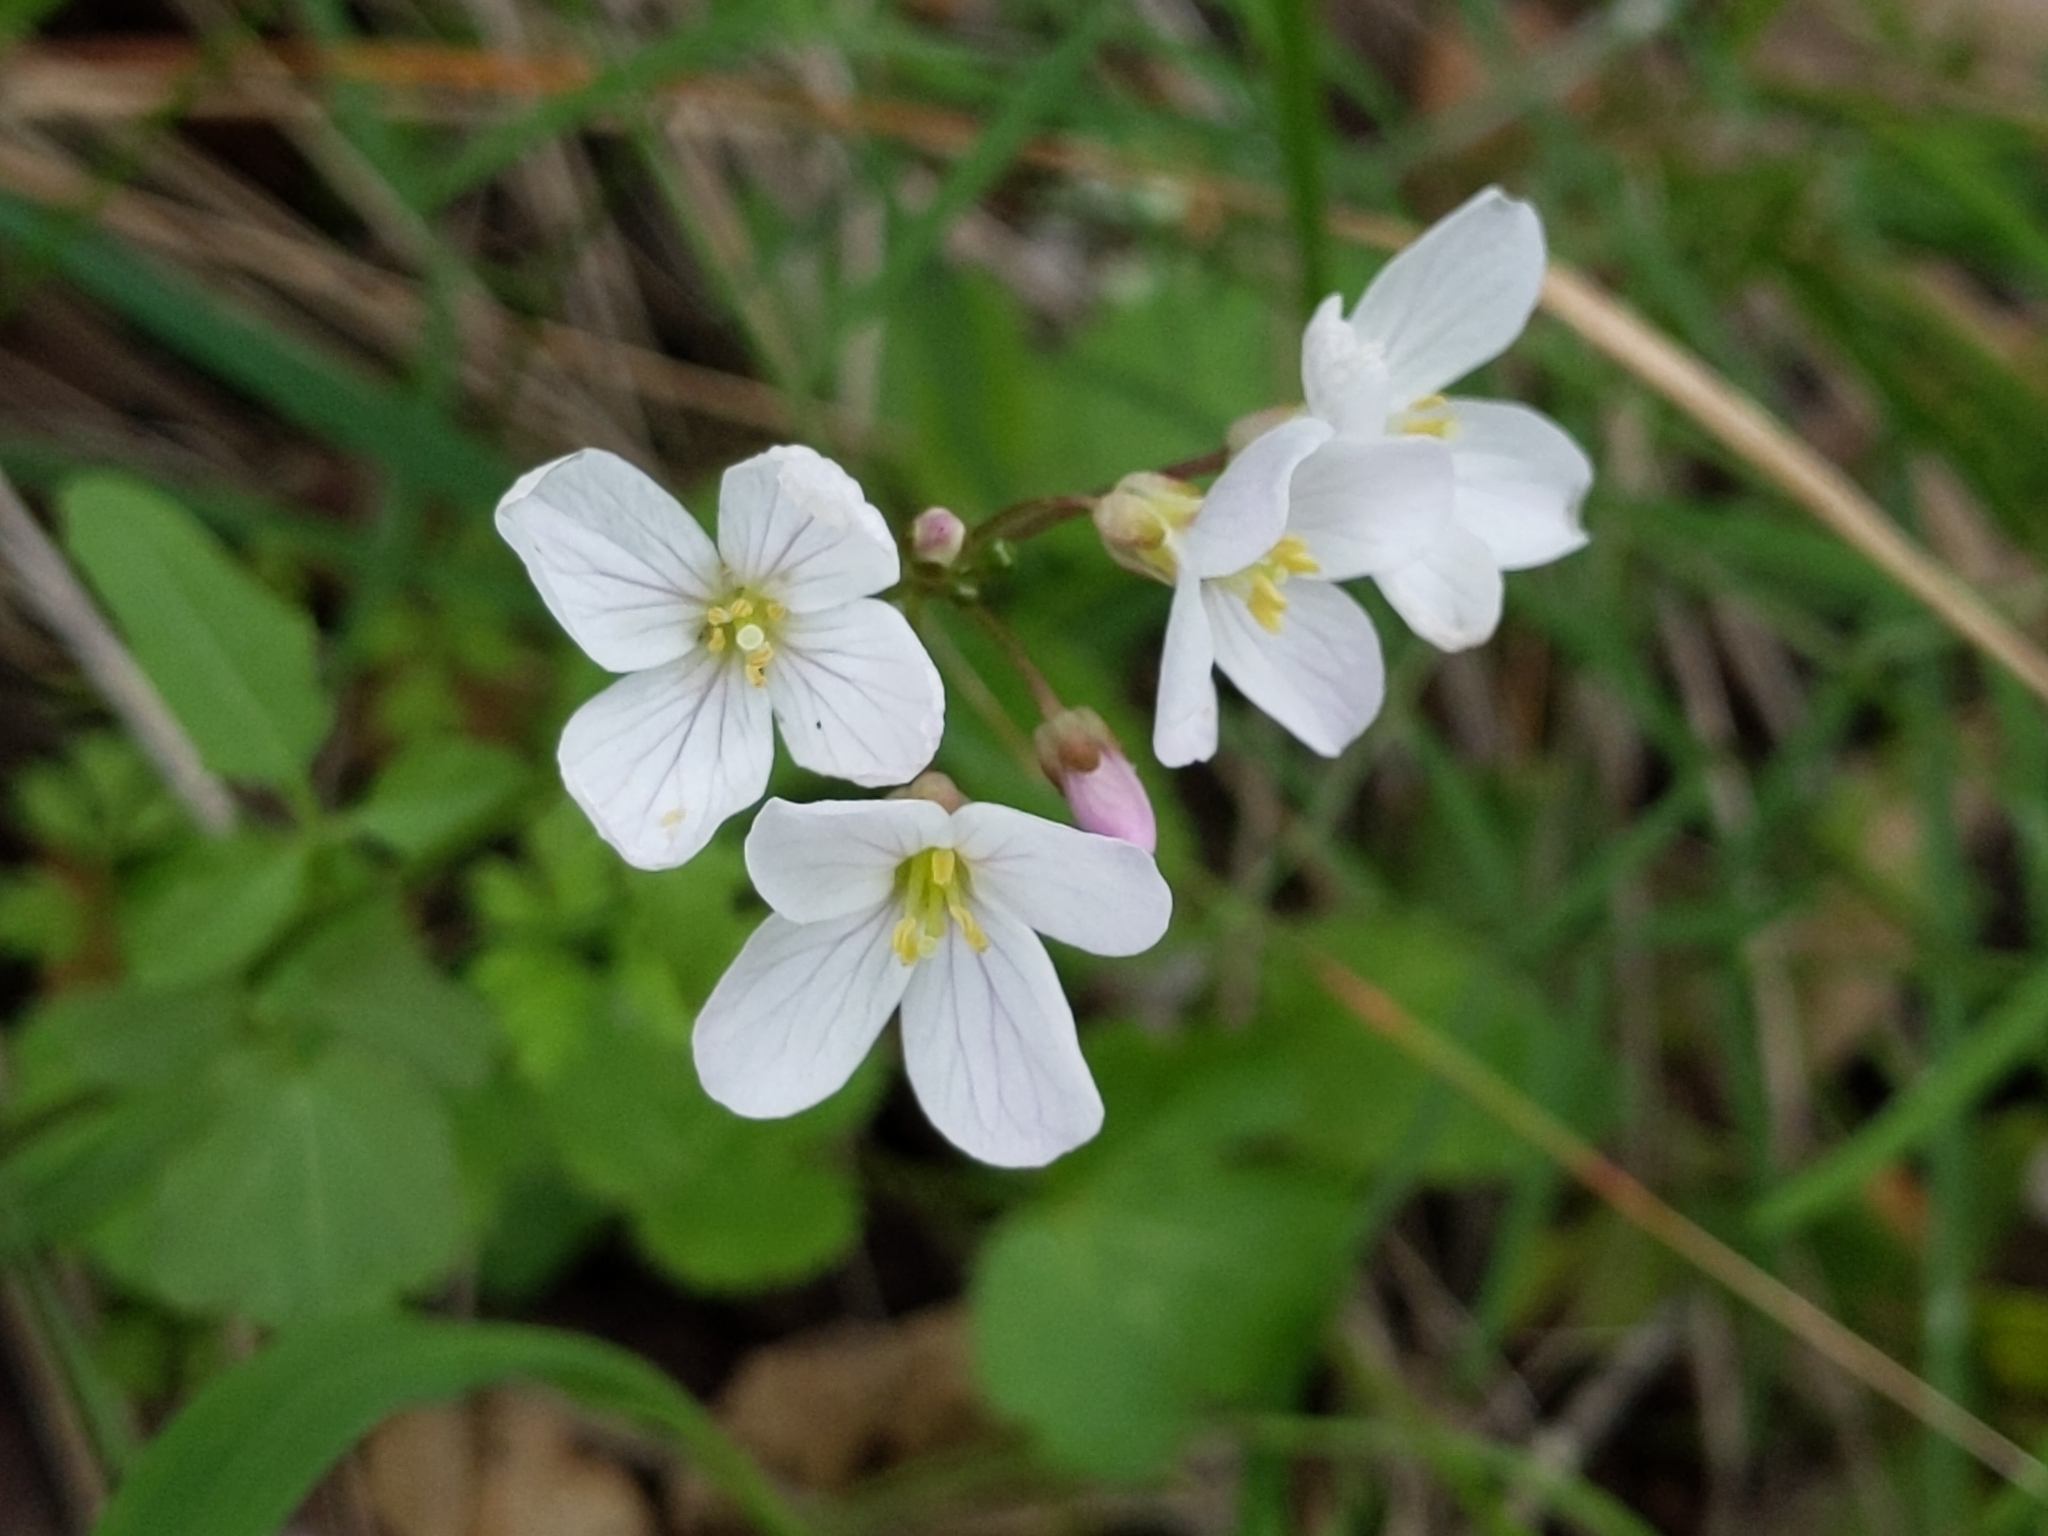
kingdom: Plantae
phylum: Tracheophyta
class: Magnoliopsida
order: Brassicales
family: Brassicaceae
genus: Cardamine
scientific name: Cardamine californica
